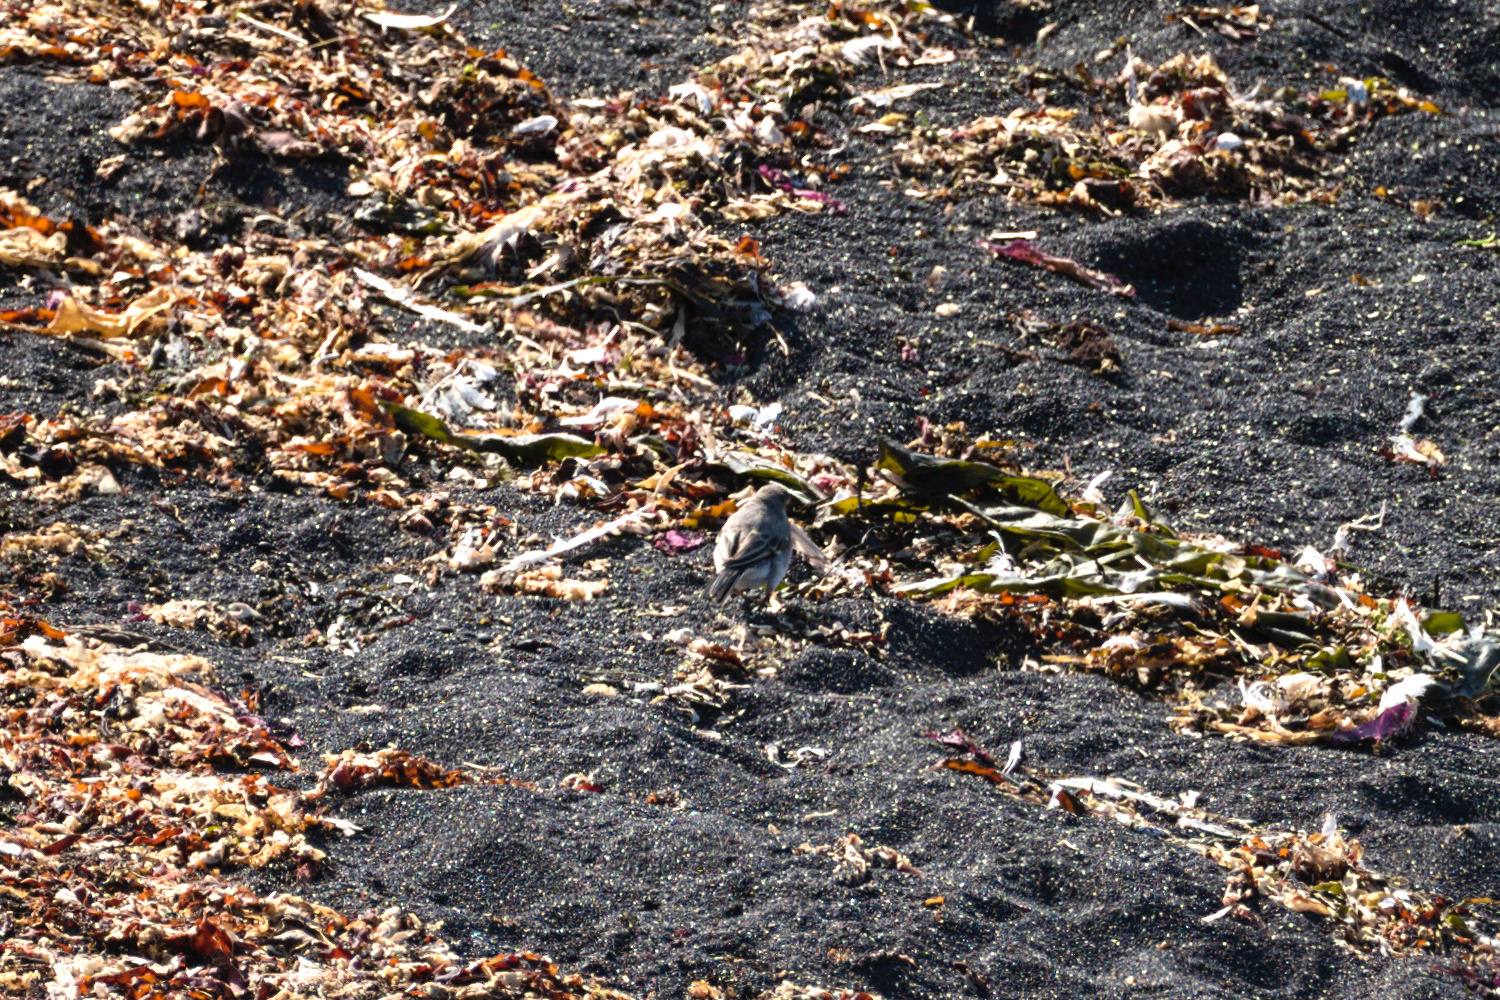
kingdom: Animalia
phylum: Chordata
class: Aves
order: Passeriformes
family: Motacillidae
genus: Motacilla
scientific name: Motacilla alba
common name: White wagtail
